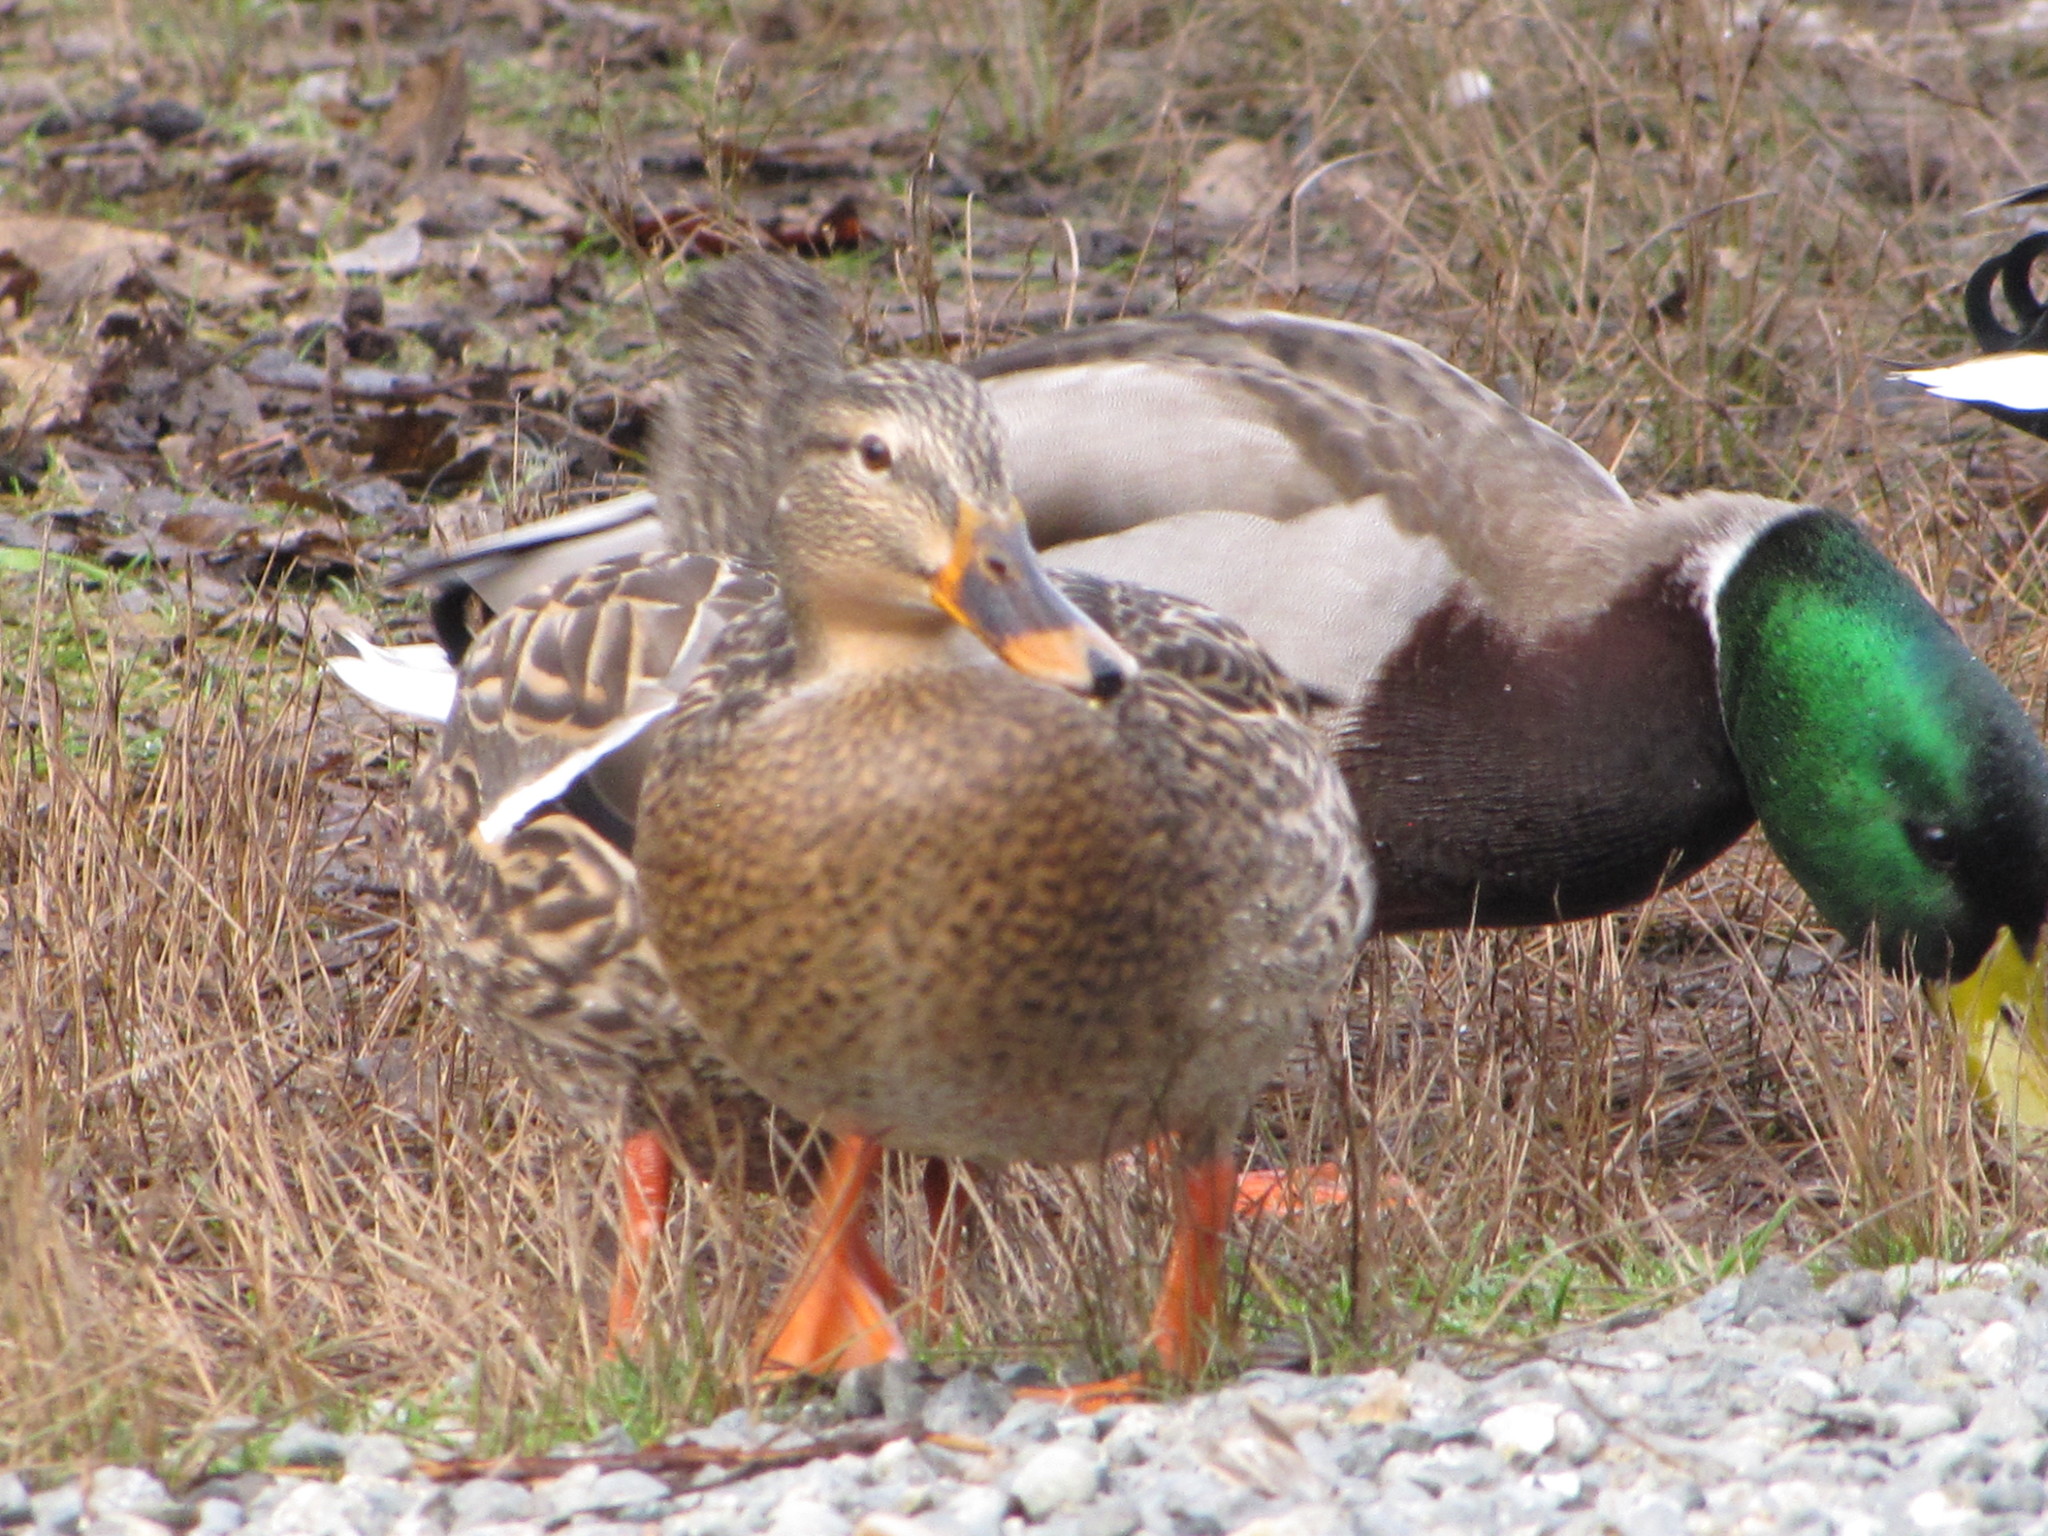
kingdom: Animalia
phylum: Chordata
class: Aves
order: Anseriformes
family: Anatidae
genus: Anas
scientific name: Anas platyrhynchos
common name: Mallard
